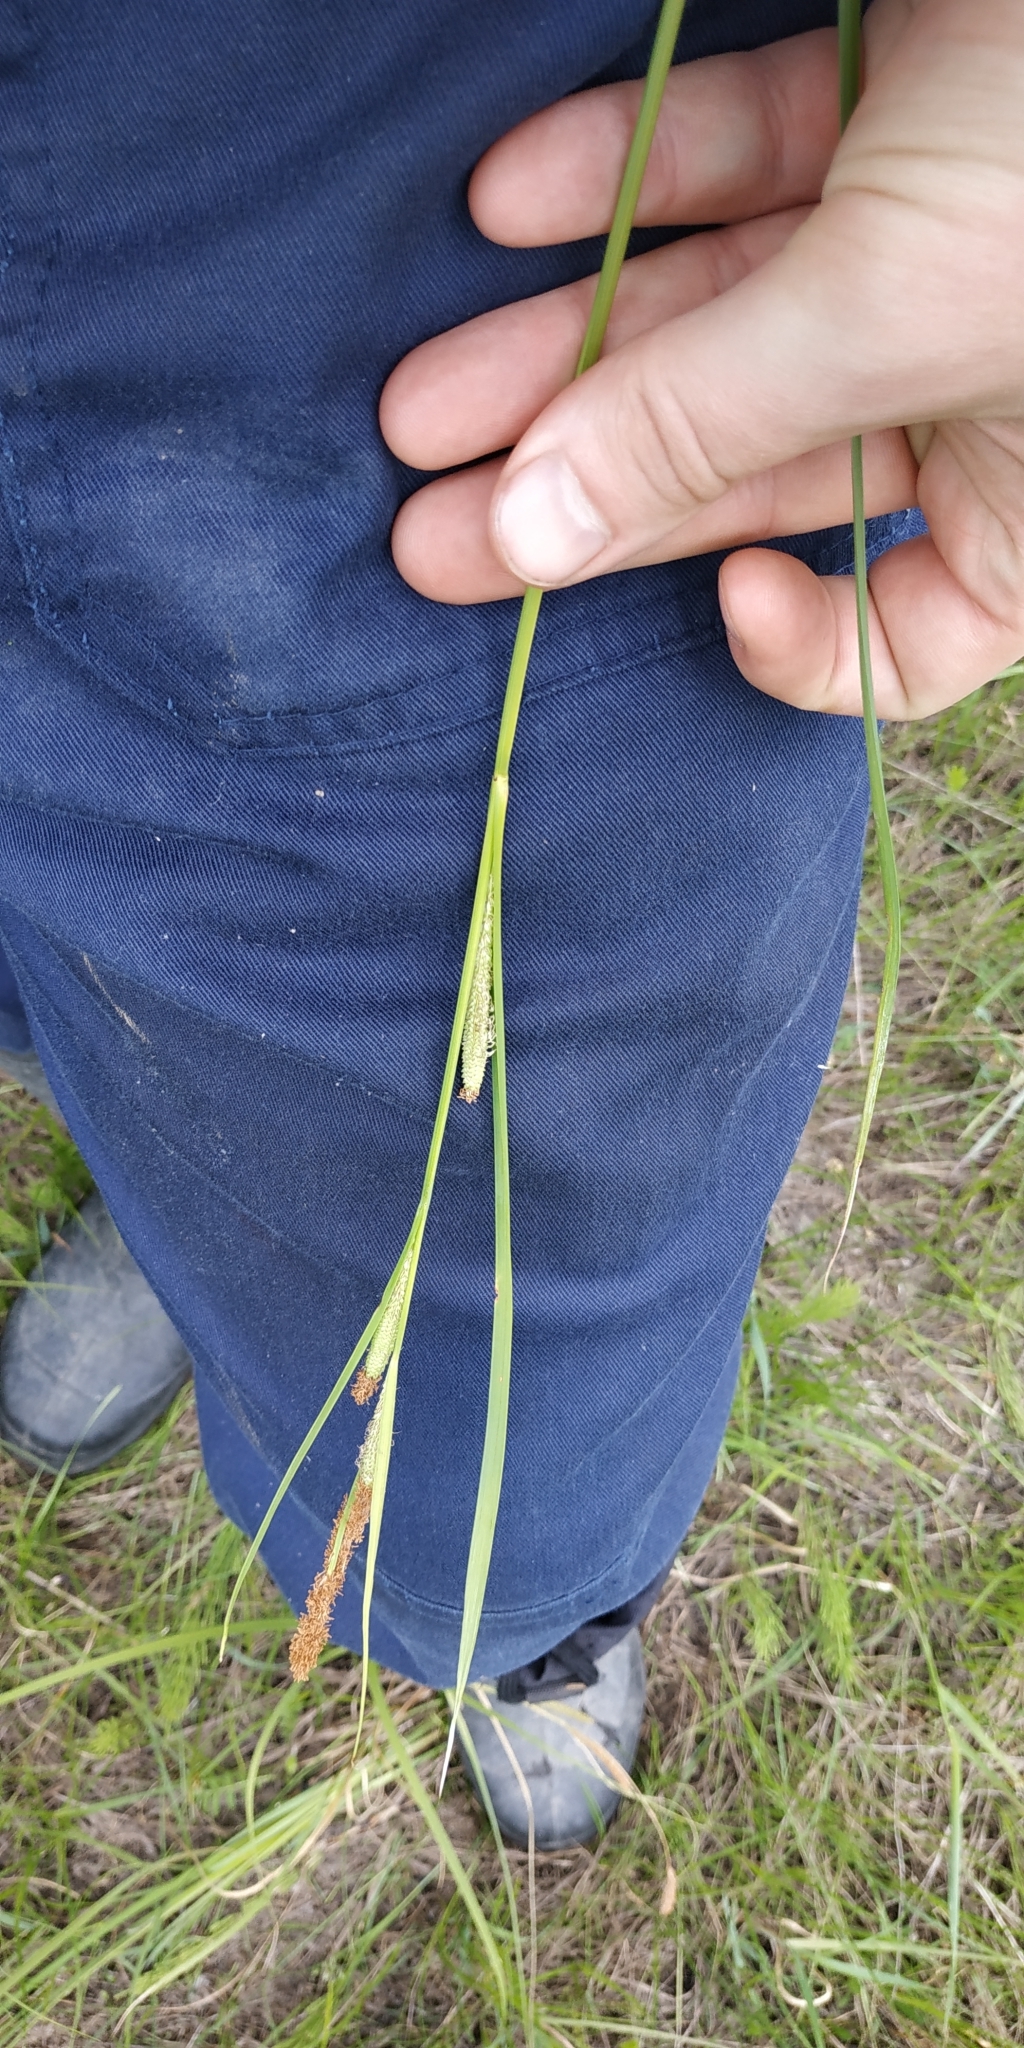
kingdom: Plantae
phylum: Tracheophyta
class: Liliopsida
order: Poales
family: Cyperaceae
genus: Carex
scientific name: Carex aquatilis
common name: Water sedge
